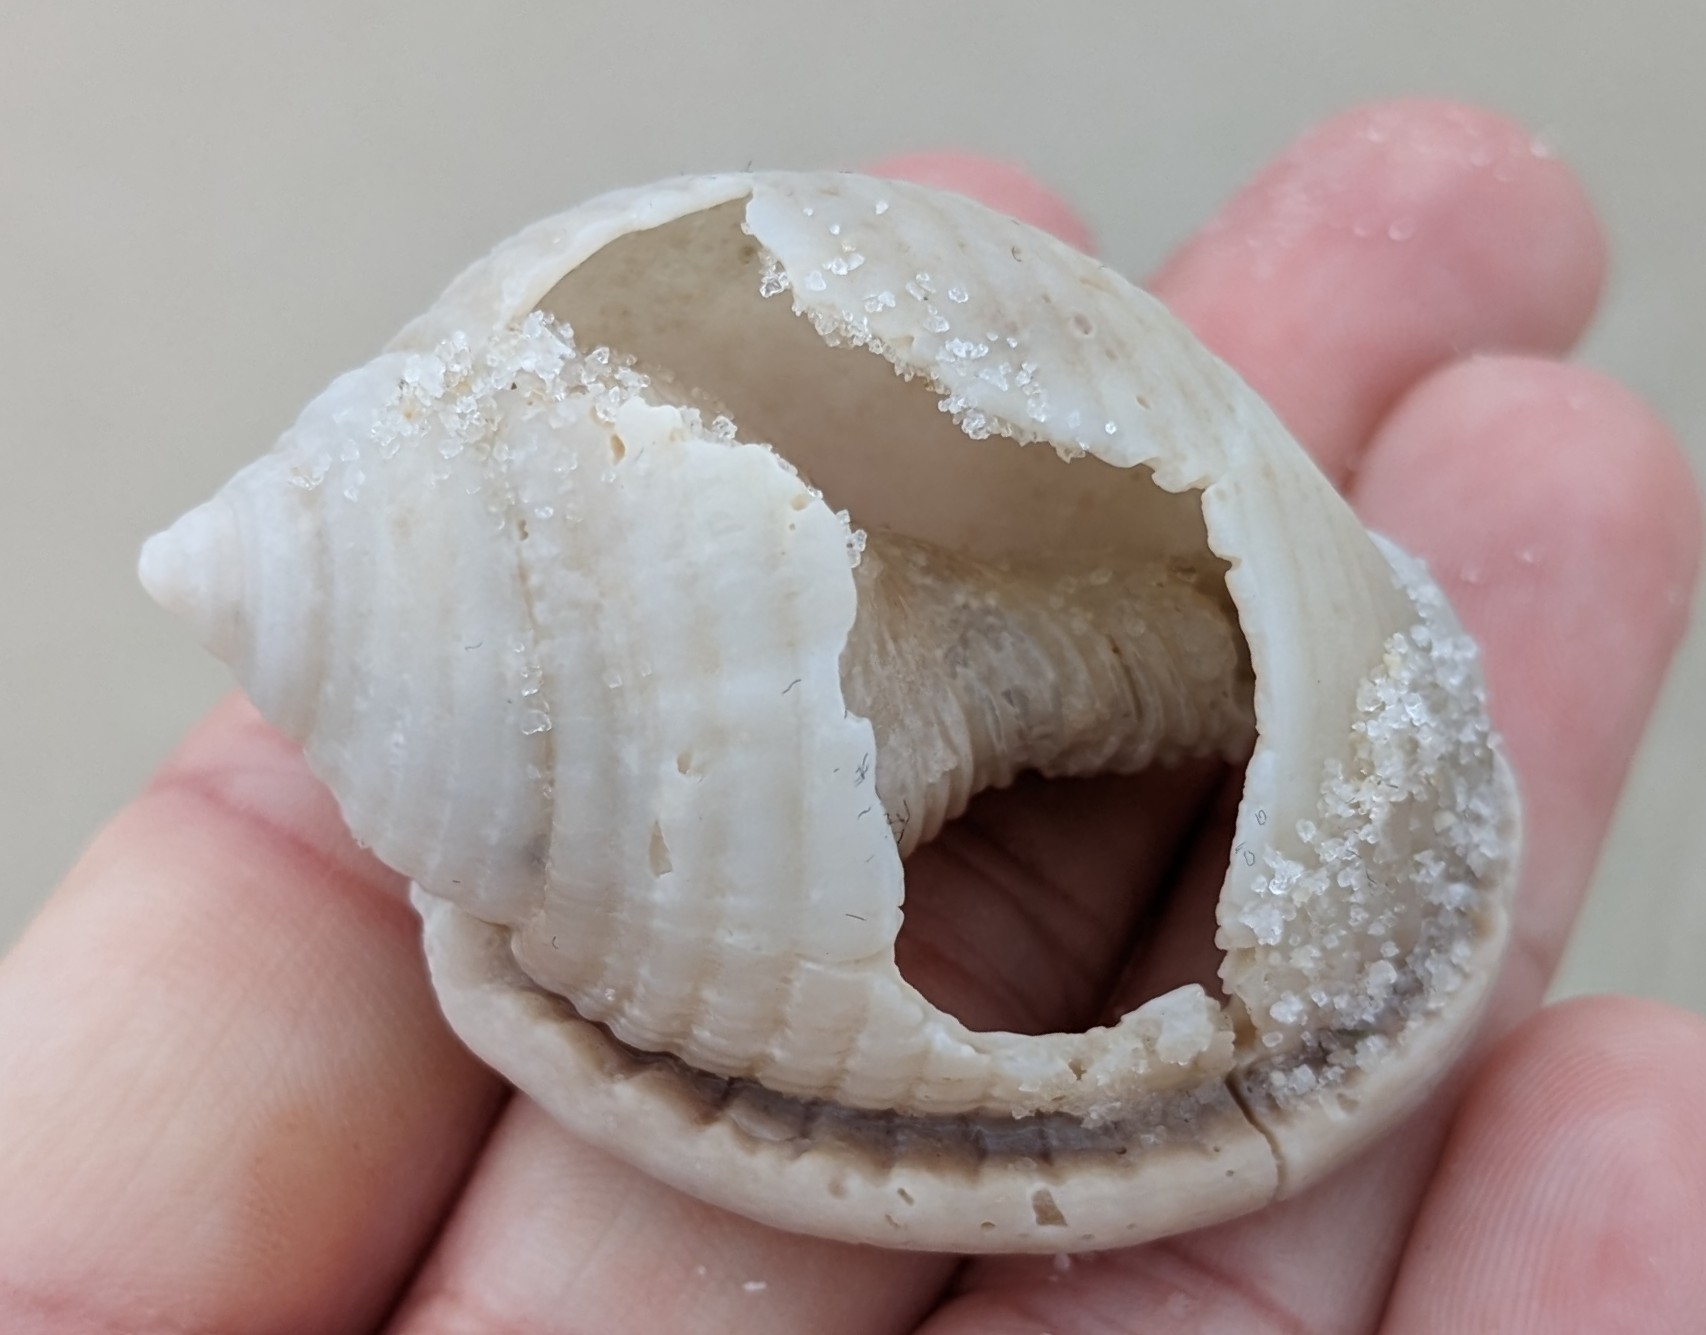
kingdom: Animalia
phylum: Mollusca
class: Gastropoda
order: Littorinimorpha
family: Cassidae
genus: Semicassis
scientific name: Semicassis granulata
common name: Scotch bonnet
